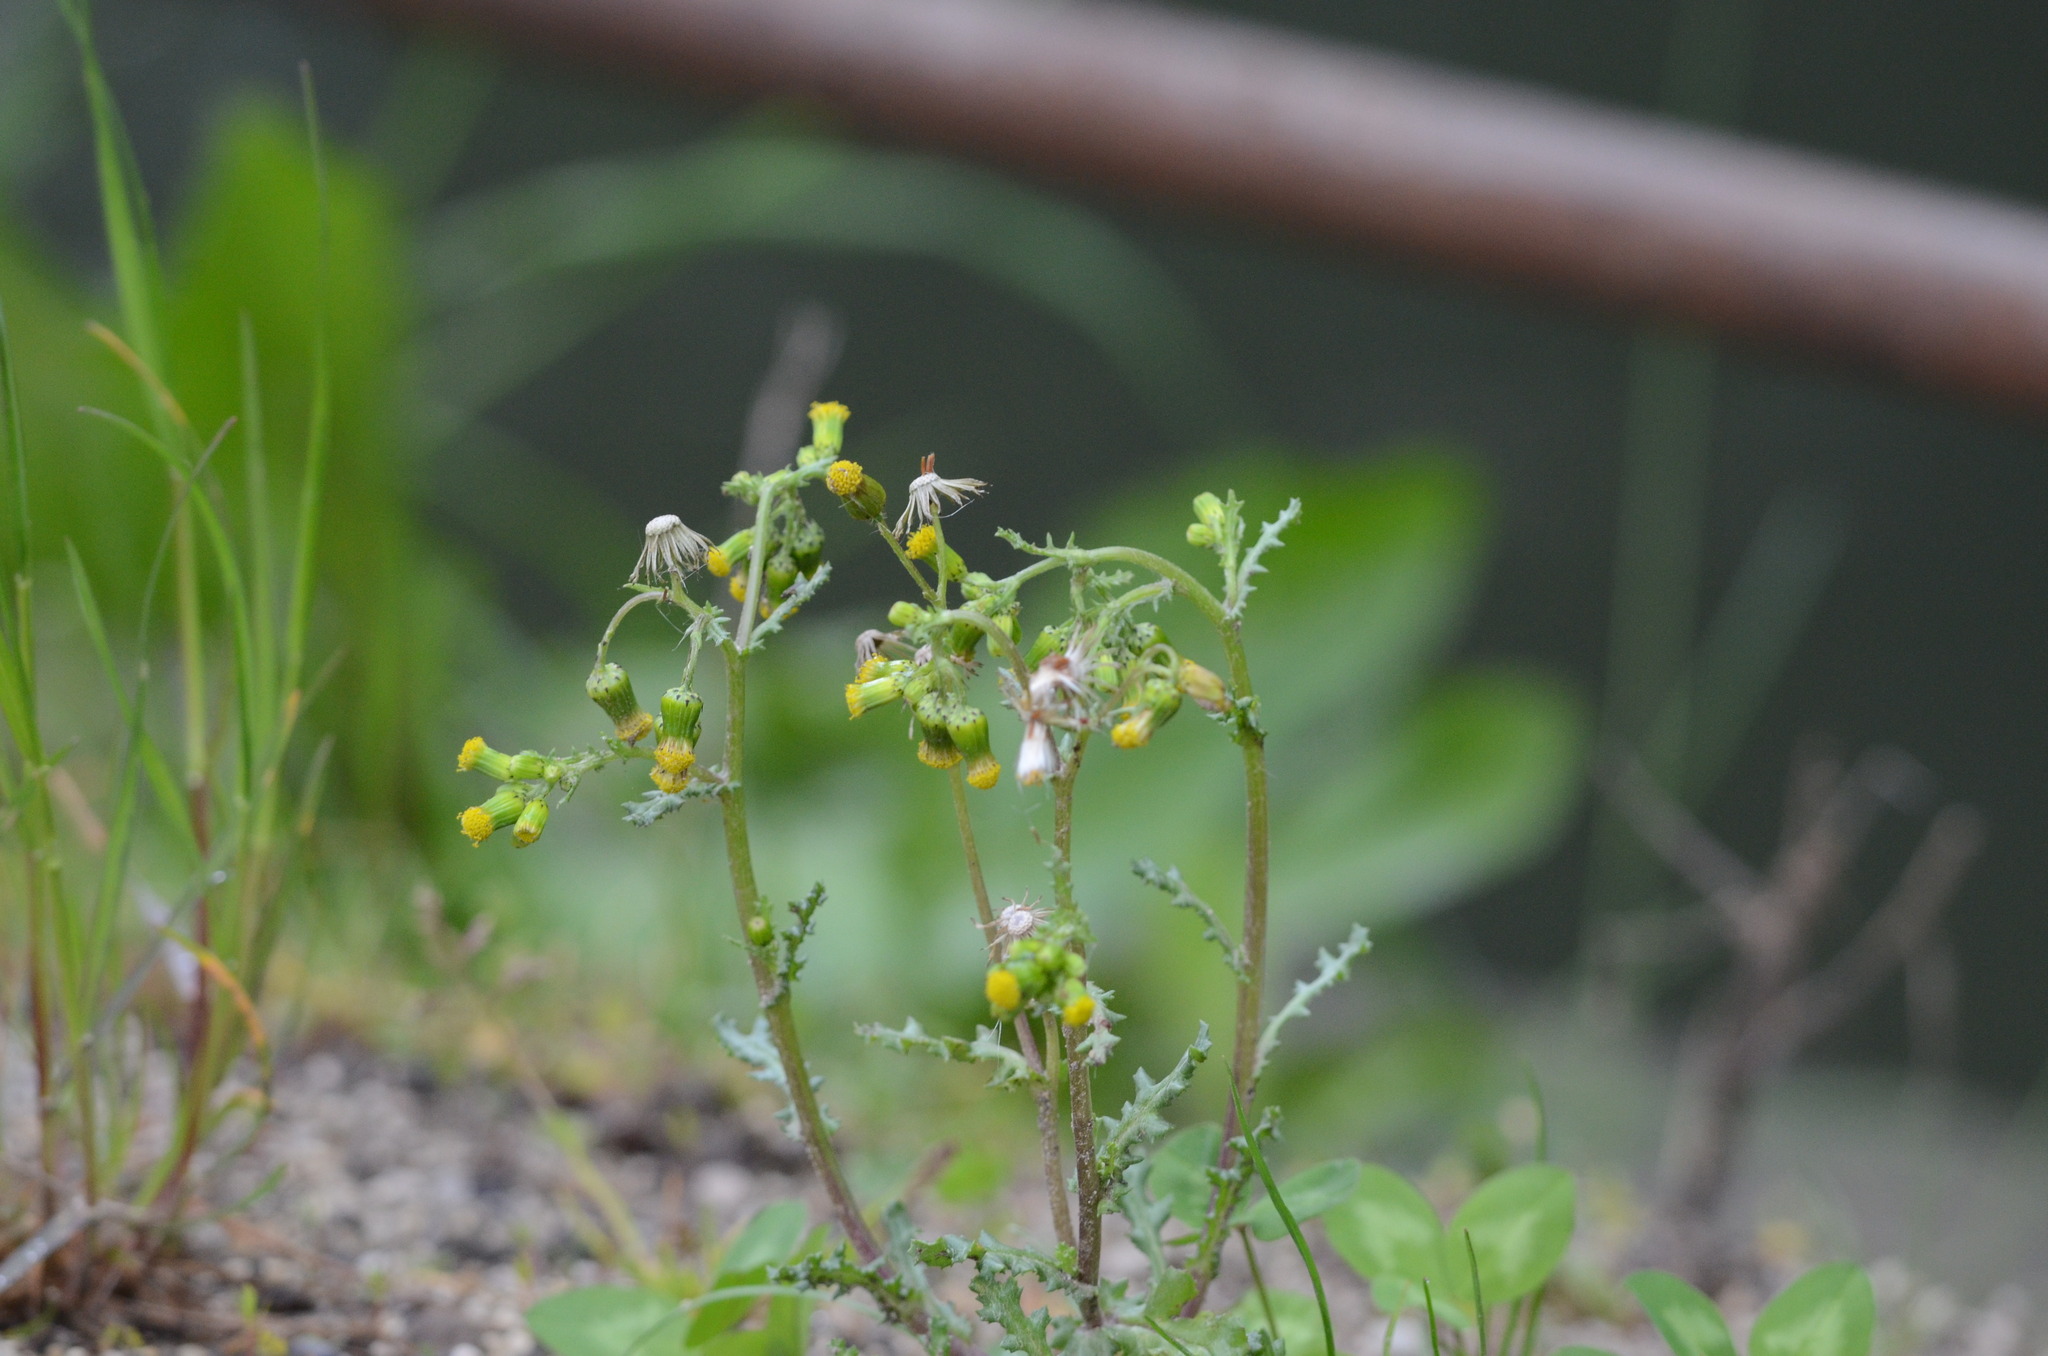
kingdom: Plantae
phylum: Tracheophyta
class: Magnoliopsida
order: Asterales
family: Asteraceae
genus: Senecio
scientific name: Senecio vulgaris
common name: Old-man-in-the-spring
